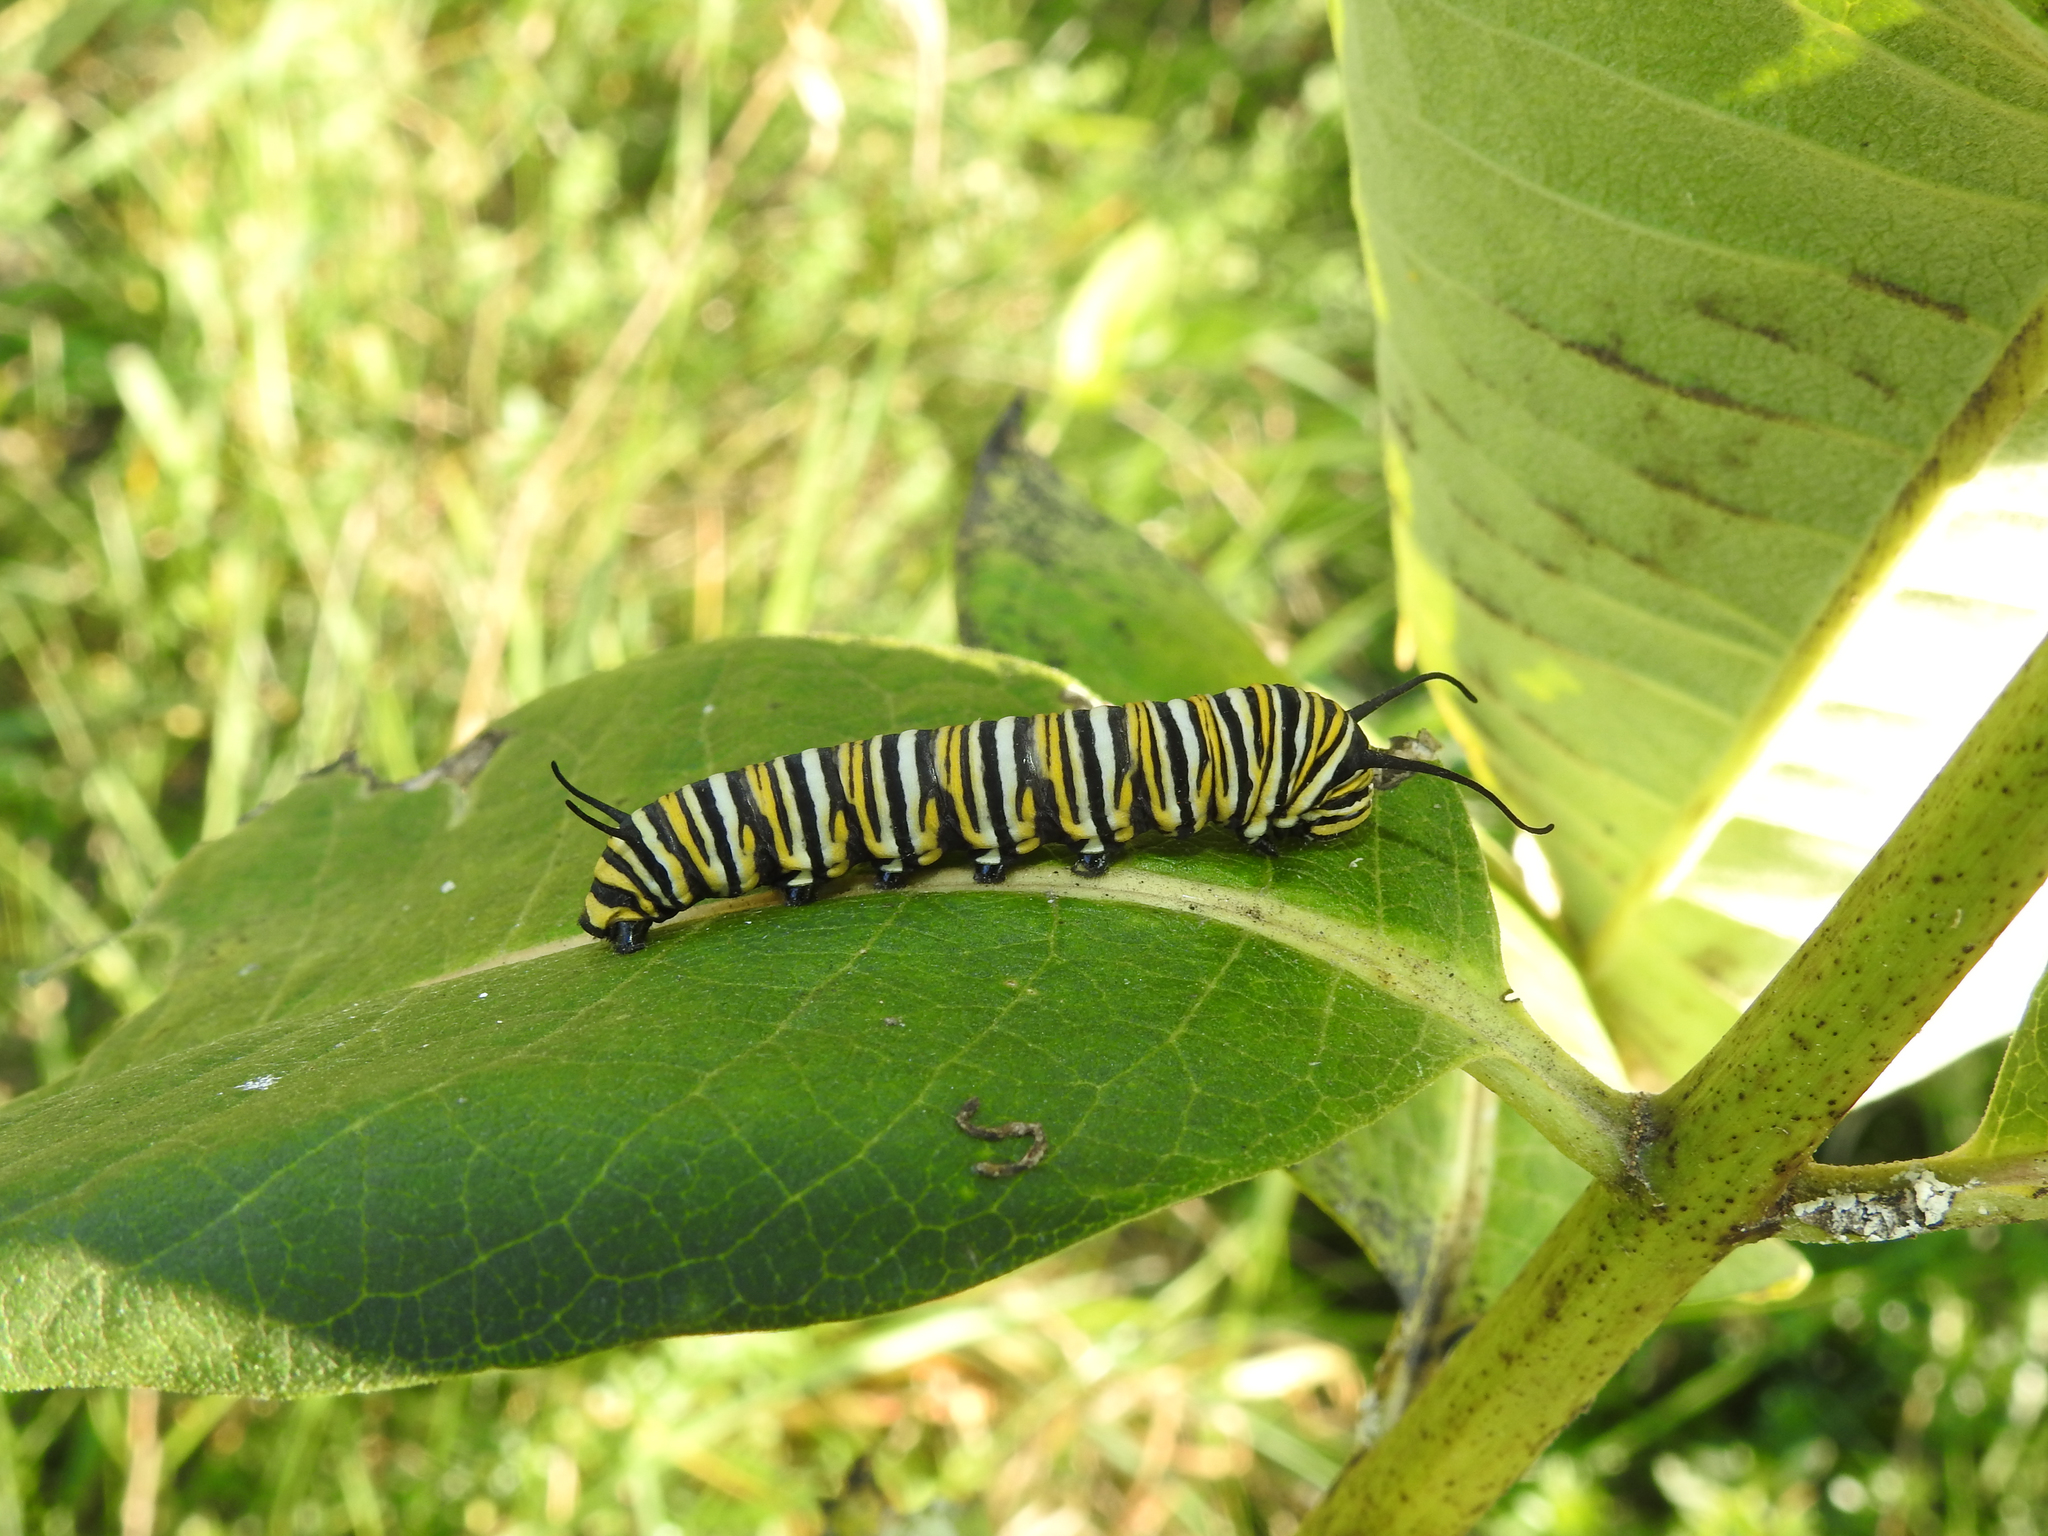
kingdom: Animalia
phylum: Arthropoda
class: Insecta
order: Lepidoptera
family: Nymphalidae
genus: Danaus
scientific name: Danaus plexippus
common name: Monarch
